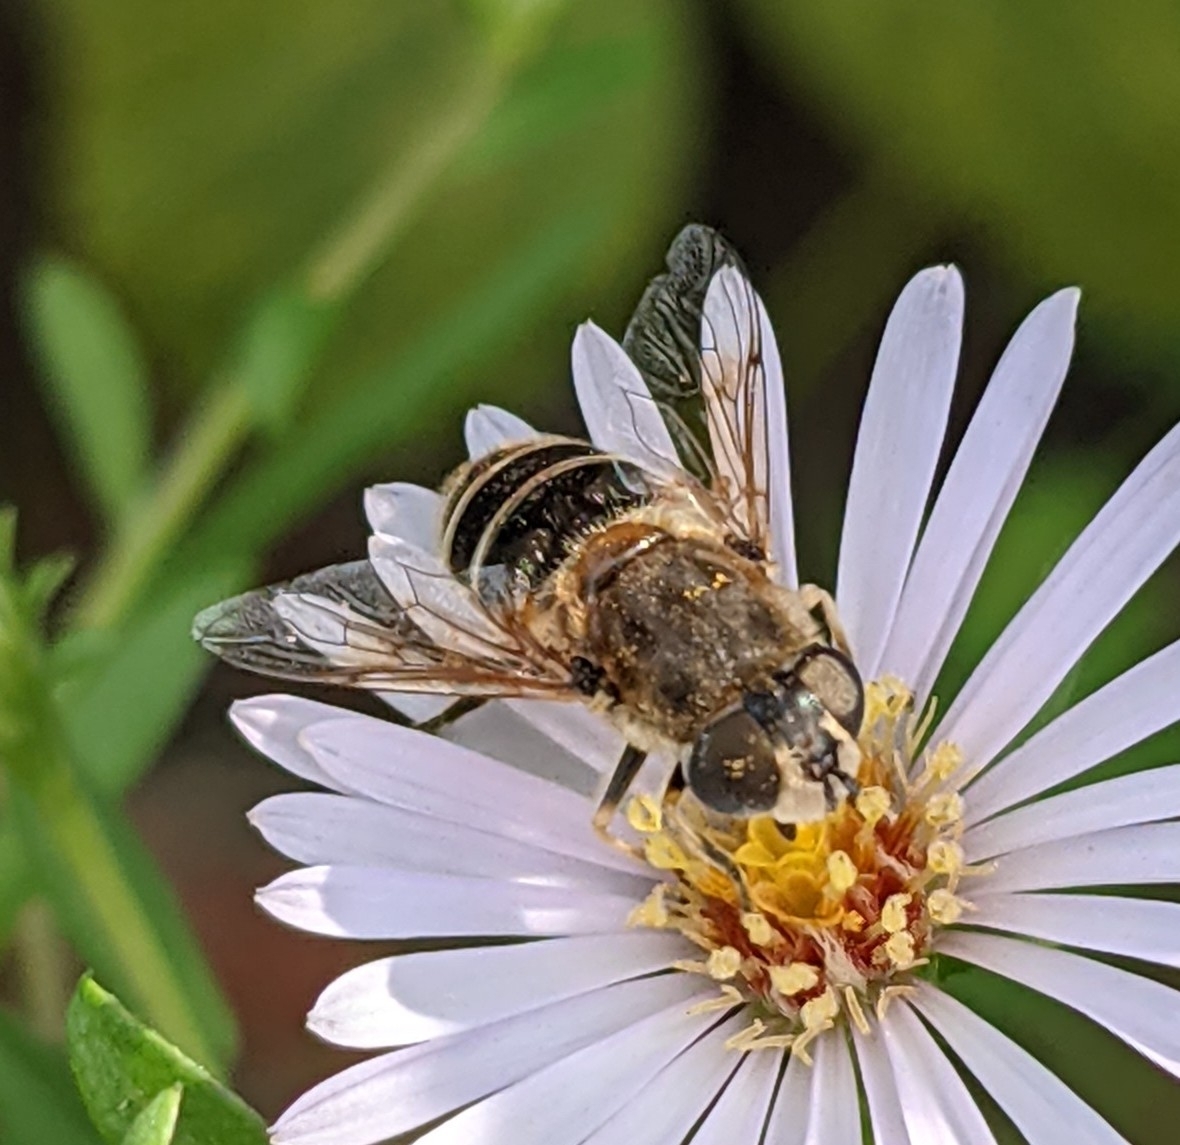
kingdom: Animalia
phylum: Arthropoda
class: Insecta
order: Diptera
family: Syrphidae
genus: Eristalis
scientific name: Eristalis arbustorum
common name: Hover fly
